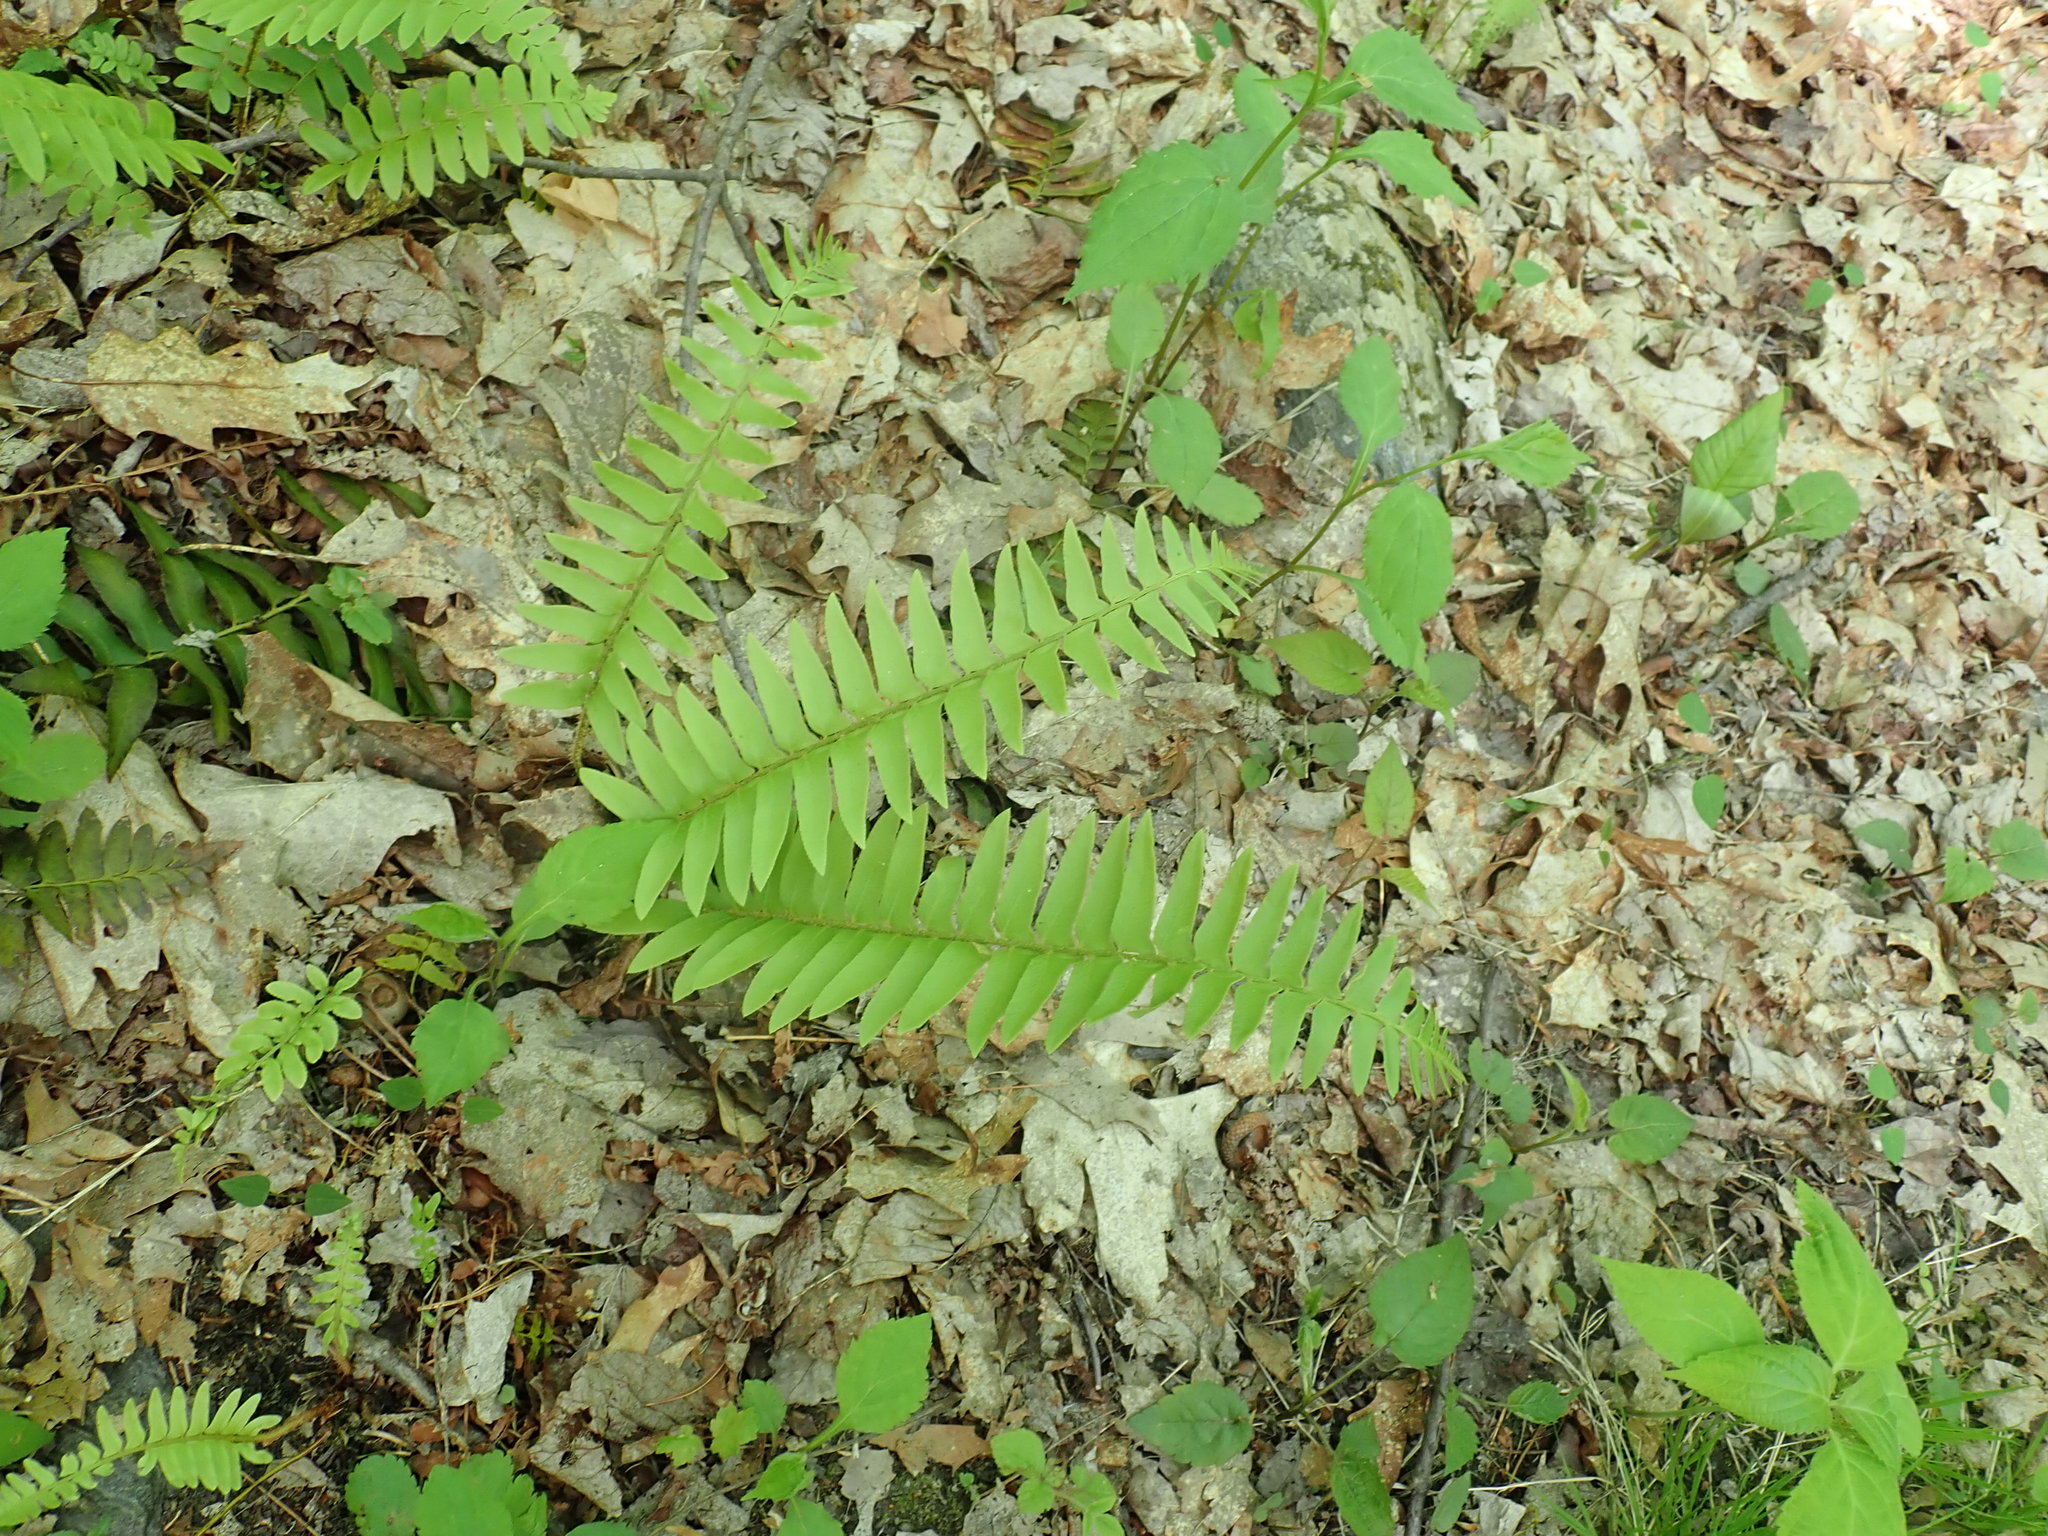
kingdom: Plantae
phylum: Tracheophyta
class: Polypodiopsida
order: Polypodiales
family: Dryopteridaceae
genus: Polystichum
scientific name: Polystichum acrostichoides
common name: Christmas fern
